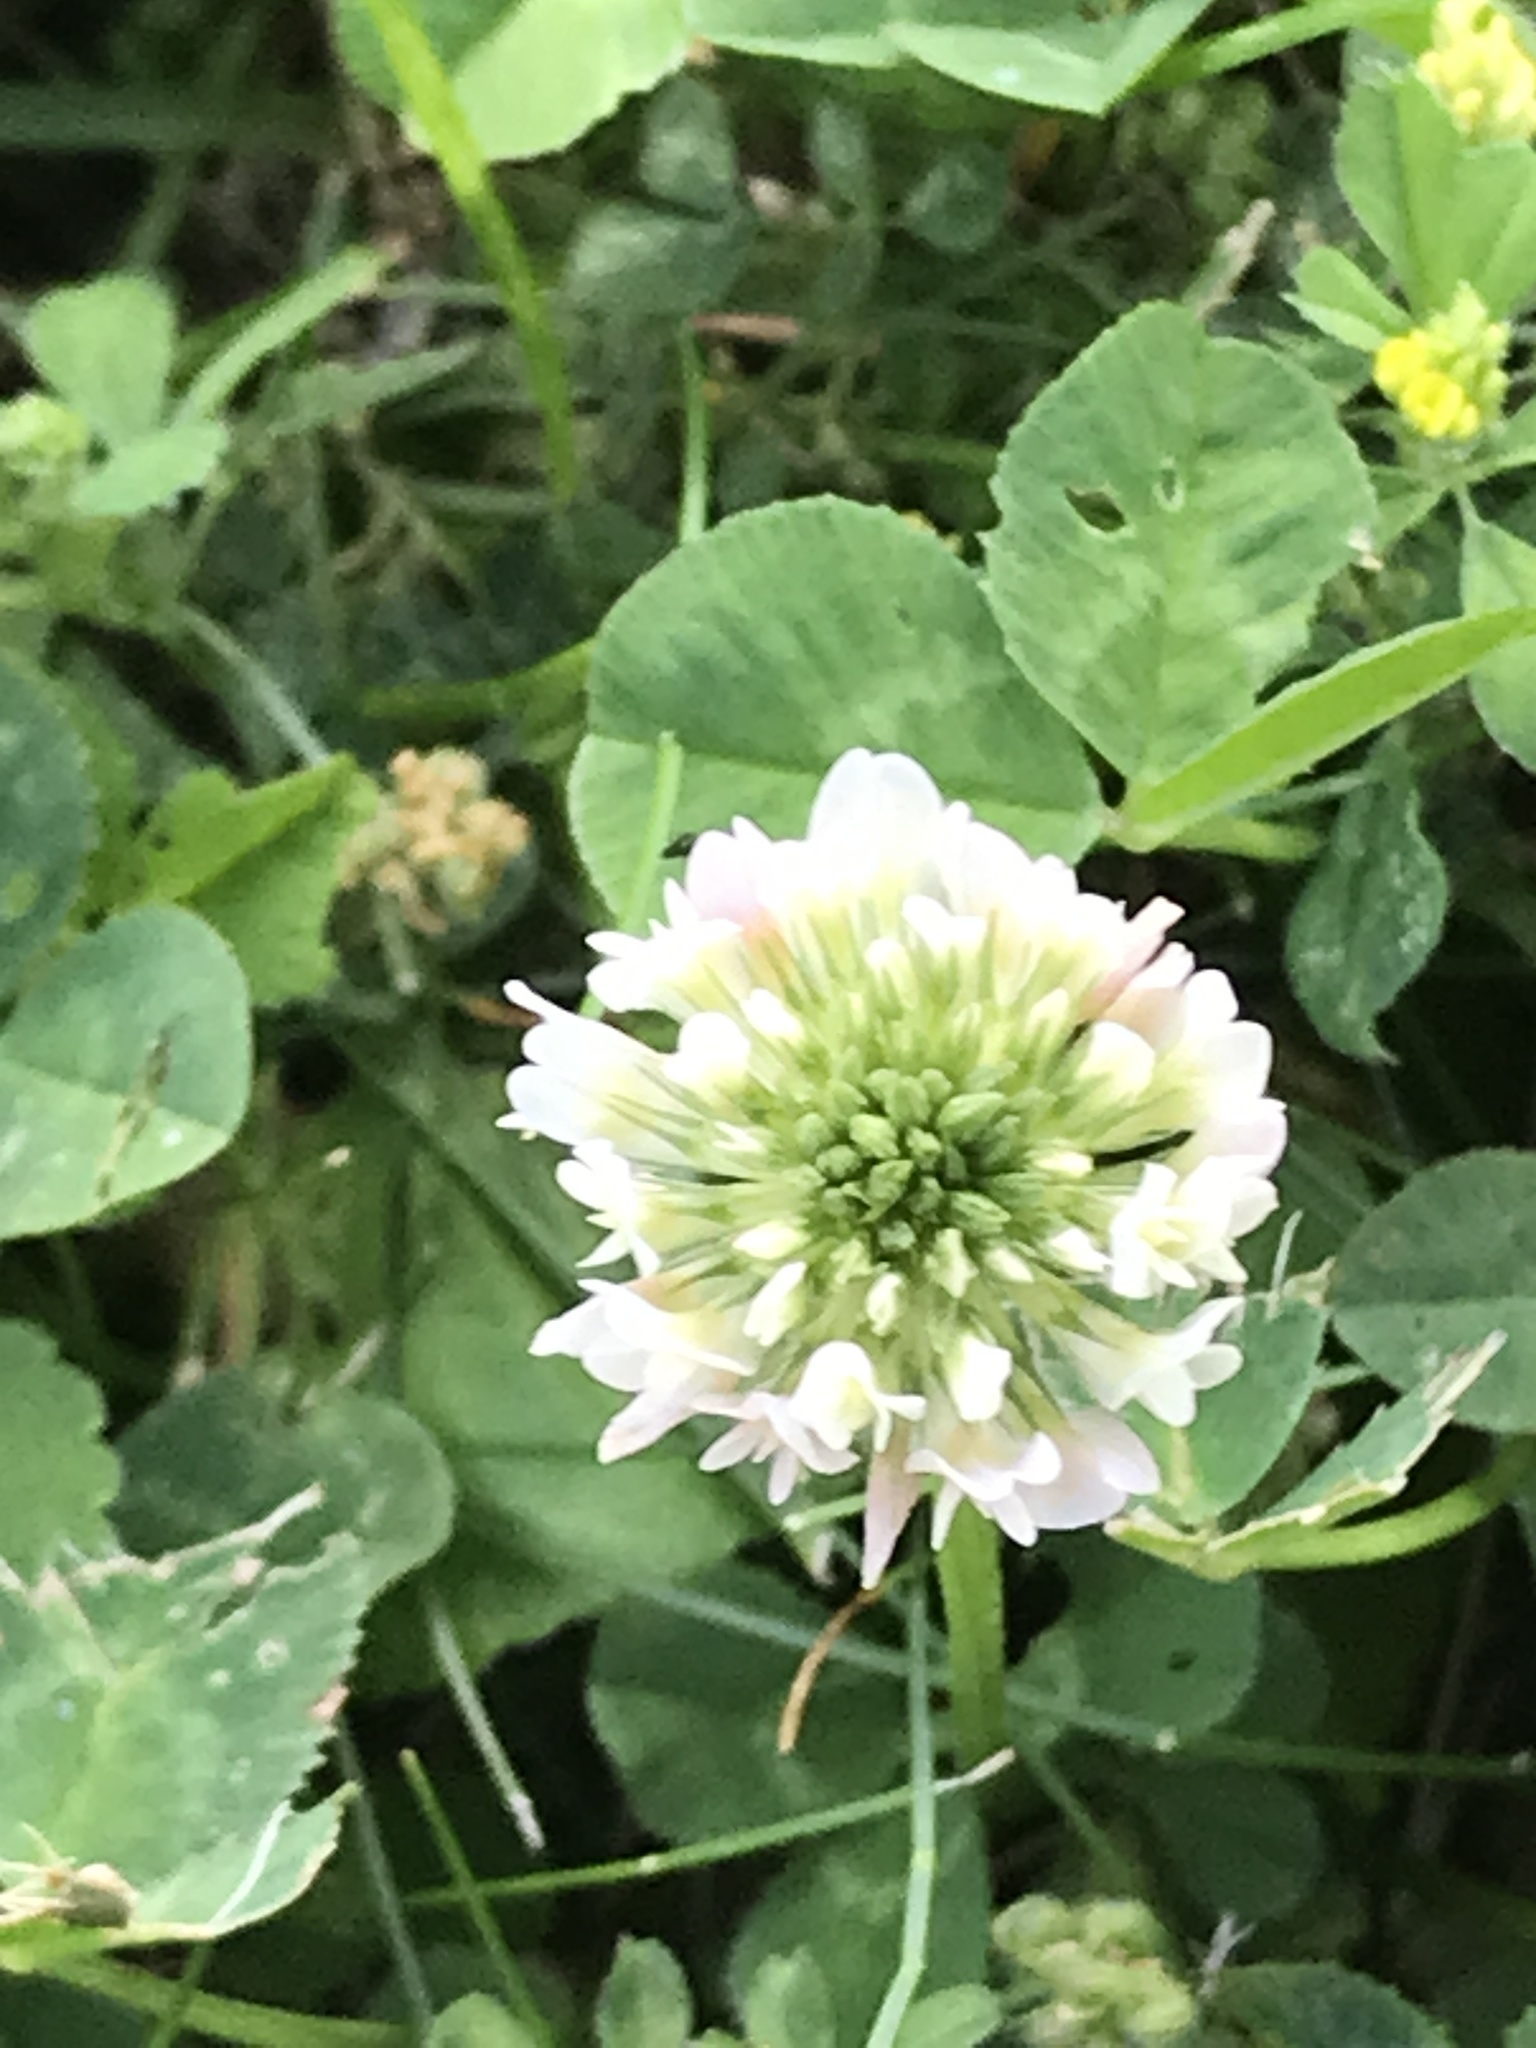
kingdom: Plantae
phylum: Tracheophyta
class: Magnoliopsida
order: Fabales
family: Fabaceae
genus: Trifolium
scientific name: Trifolium repens
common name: White clover
